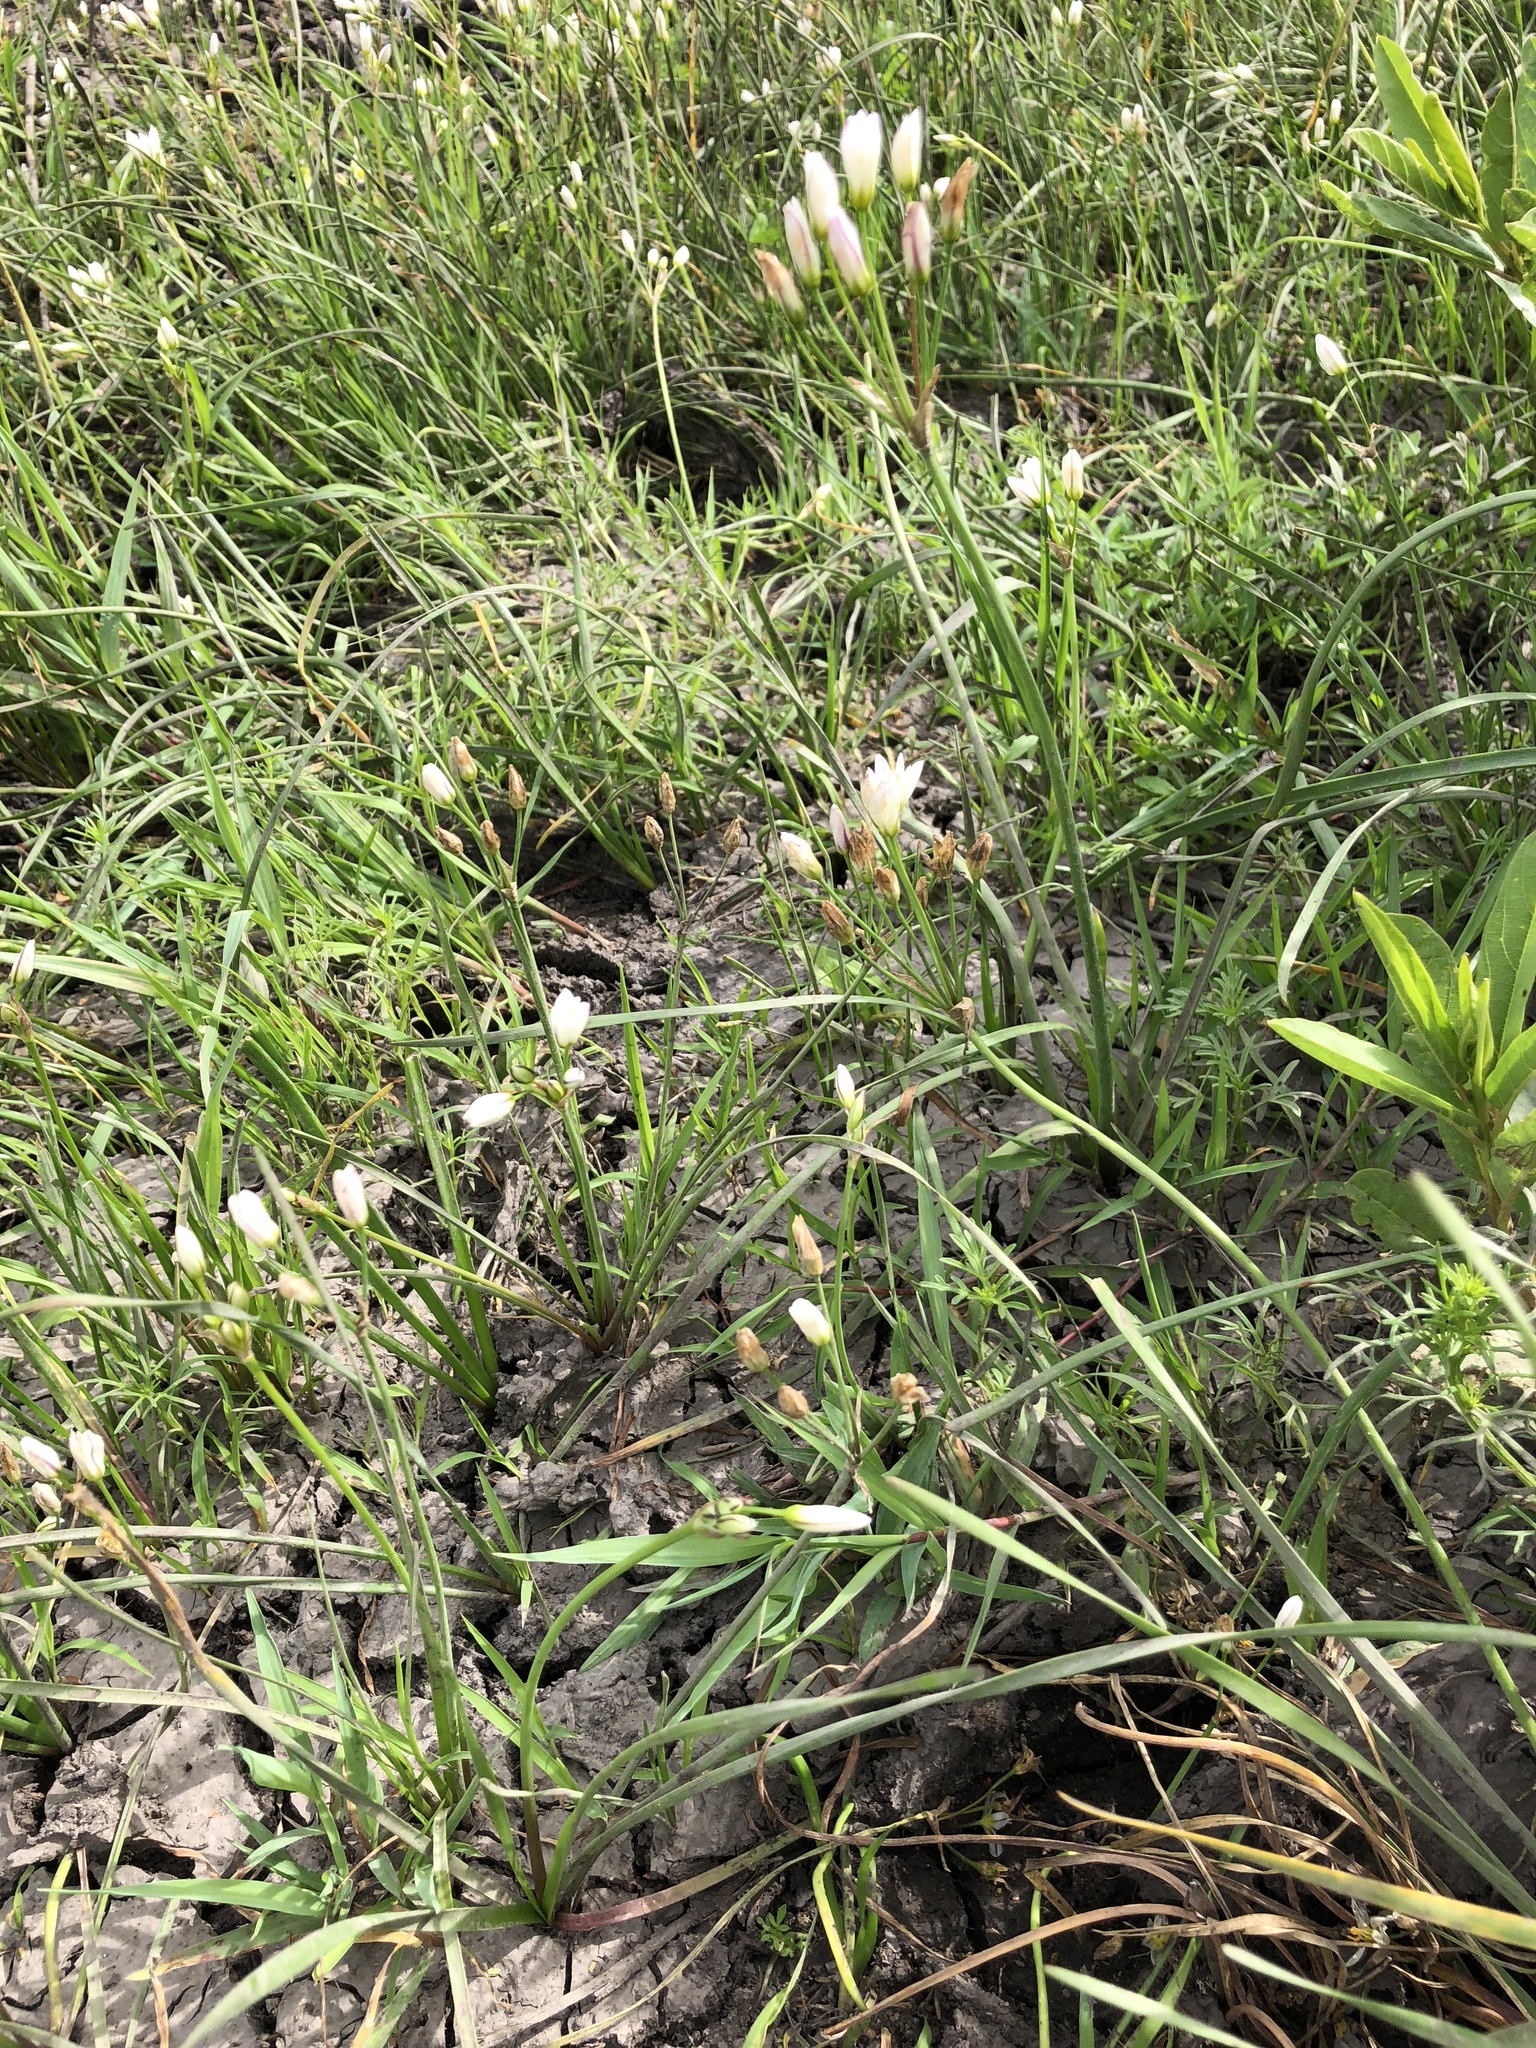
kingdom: Plantae
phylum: Tracheophyta
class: Liliopsida
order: Asparagales
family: Amaryllidaceae
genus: Nothoscordum
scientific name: Nothoscordum bivalve
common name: Crow-poison
